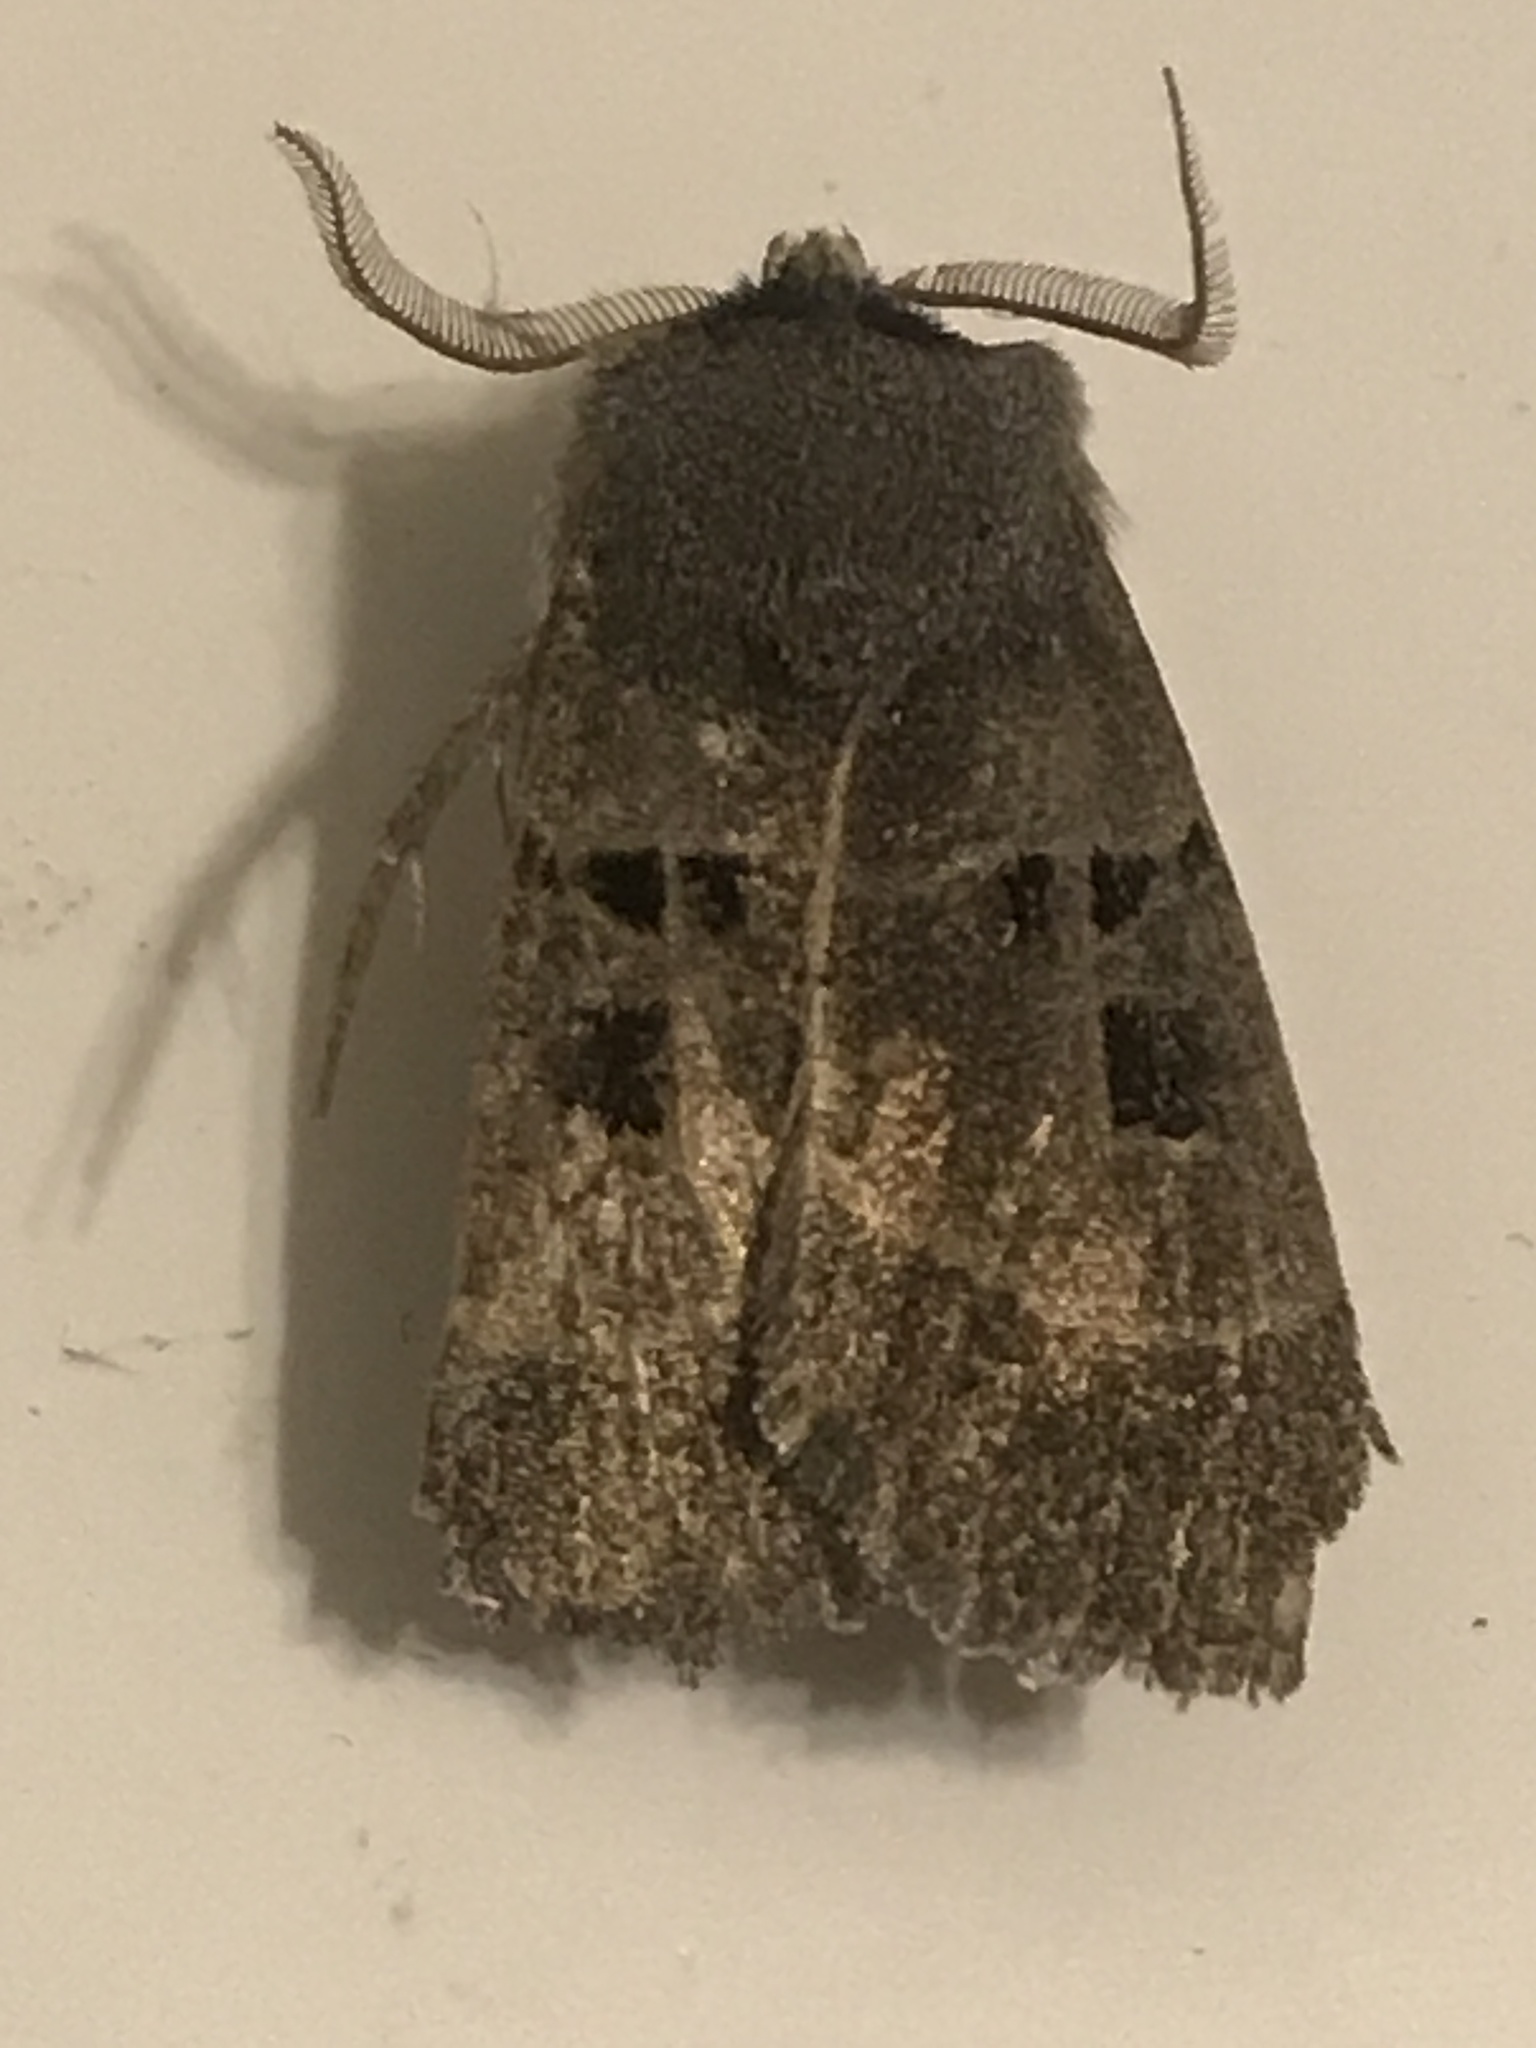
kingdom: Animalia
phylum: Arthropoda
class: Insecta
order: Lepidoptera
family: Noctuidae
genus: Agnorisma
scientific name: Agnorisma bollii
